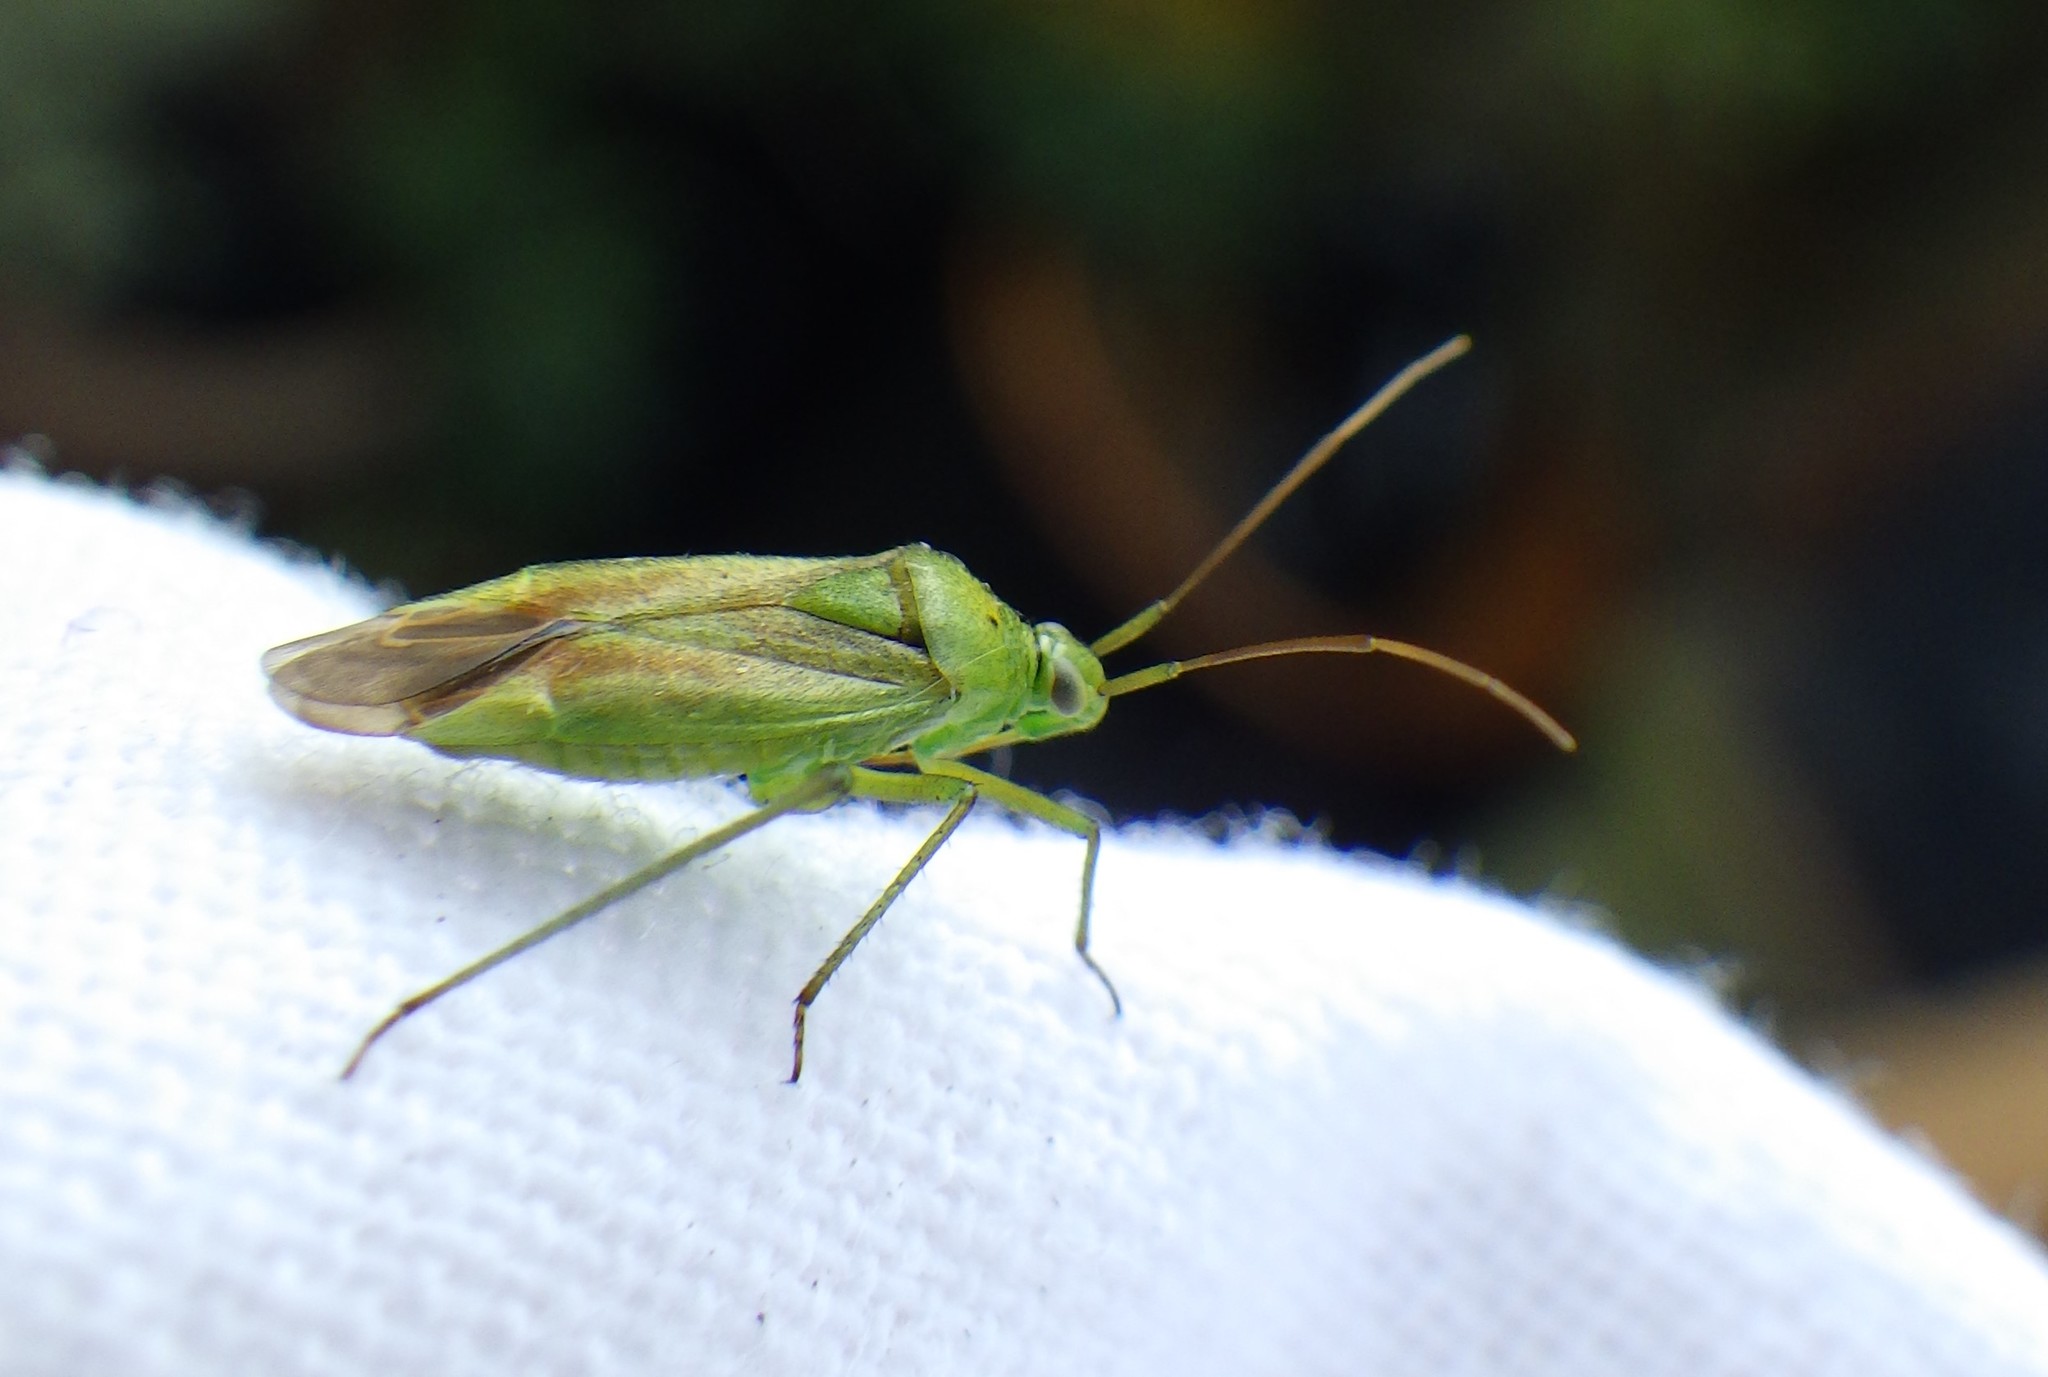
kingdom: Animalia
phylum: Arthropoda
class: Insecta
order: Hemiptera
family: Miridae
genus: Closterotomus
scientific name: Closterotomus norvegicus
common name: Plant bug
